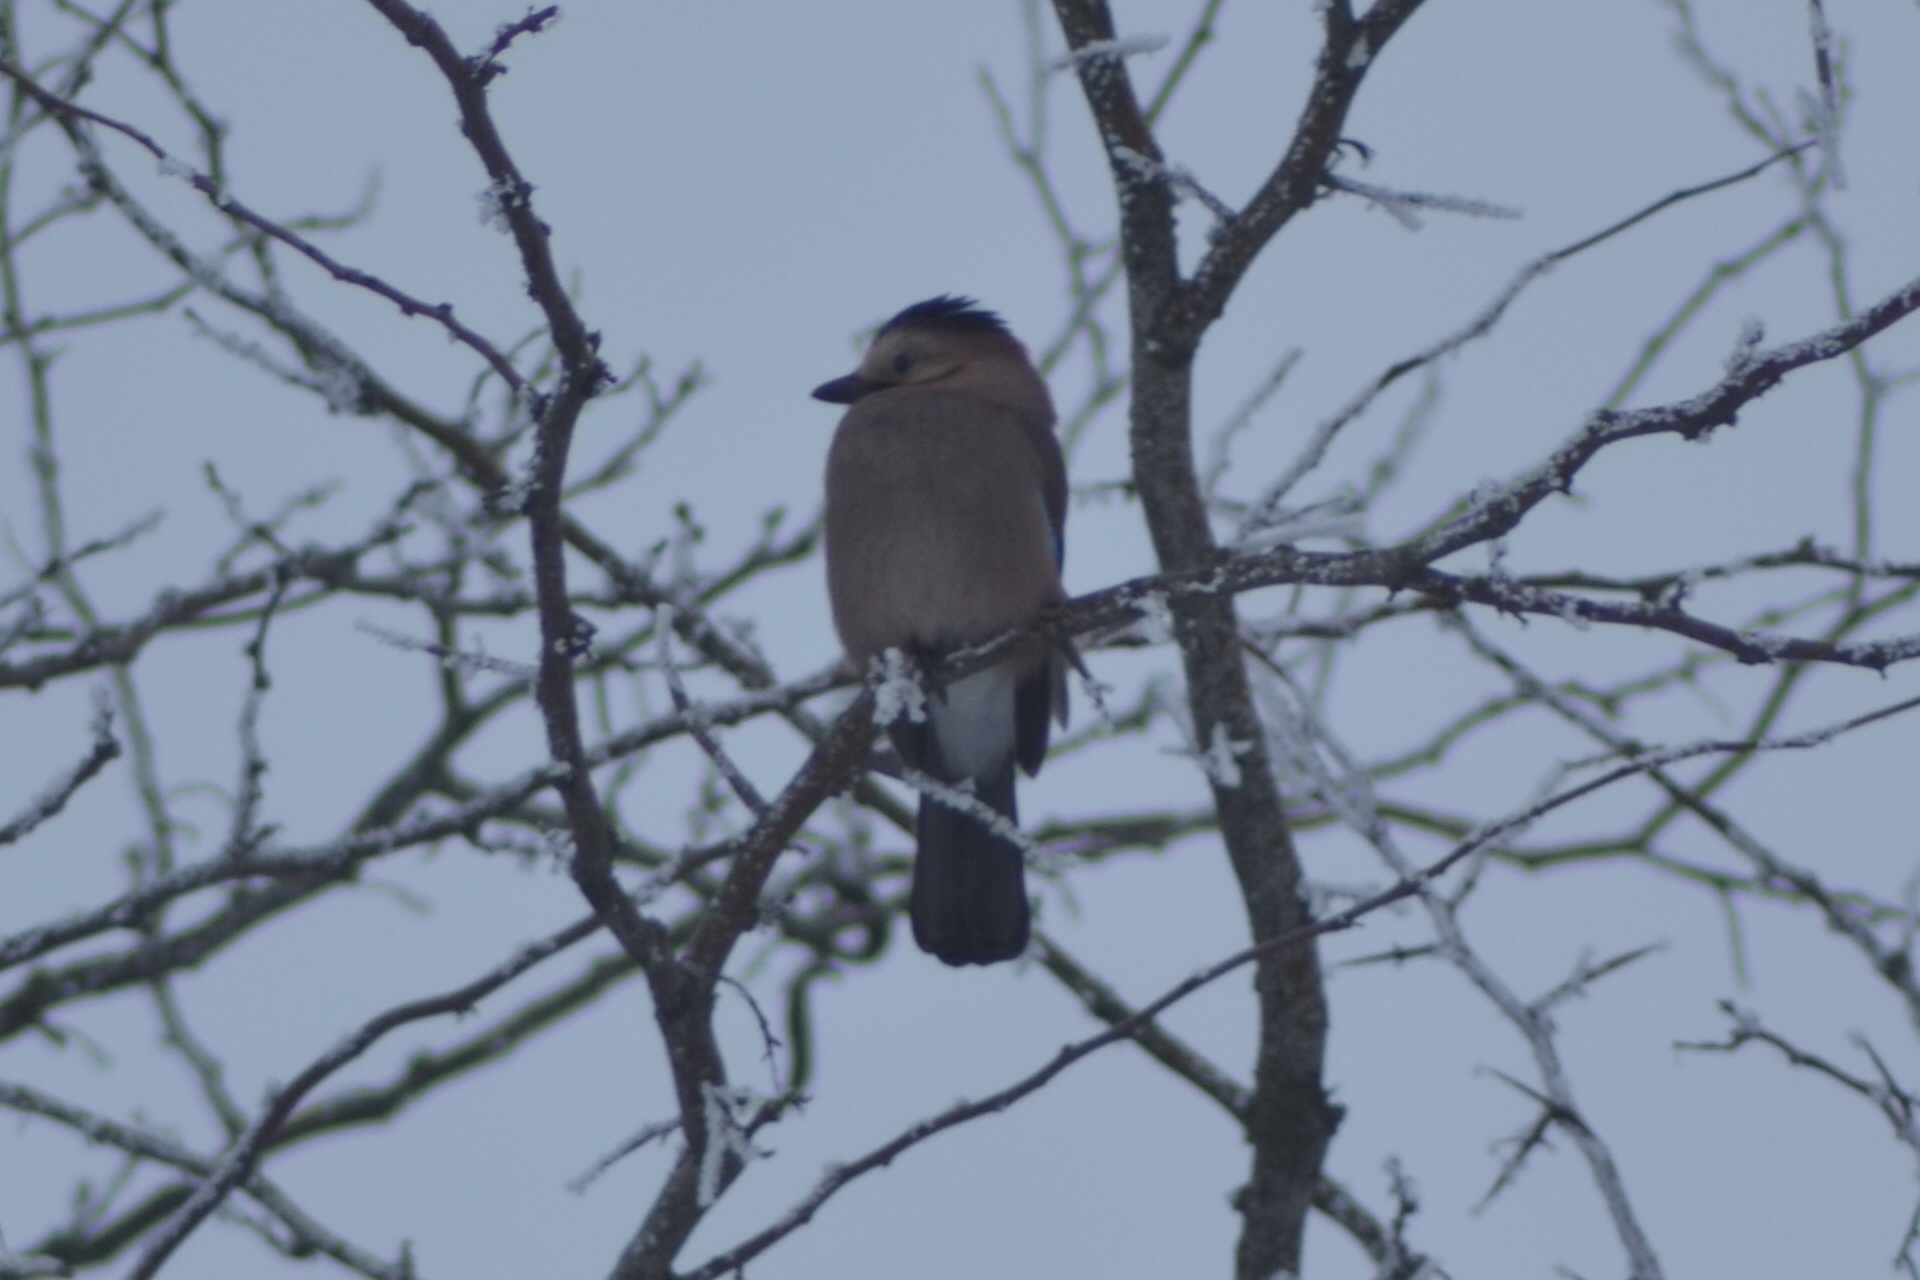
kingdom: Animalia
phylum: Chordata
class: Aves
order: Passeriformes
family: Corvidae
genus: Garrulus
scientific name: Garrulus glandarius
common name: Eurasian jay
